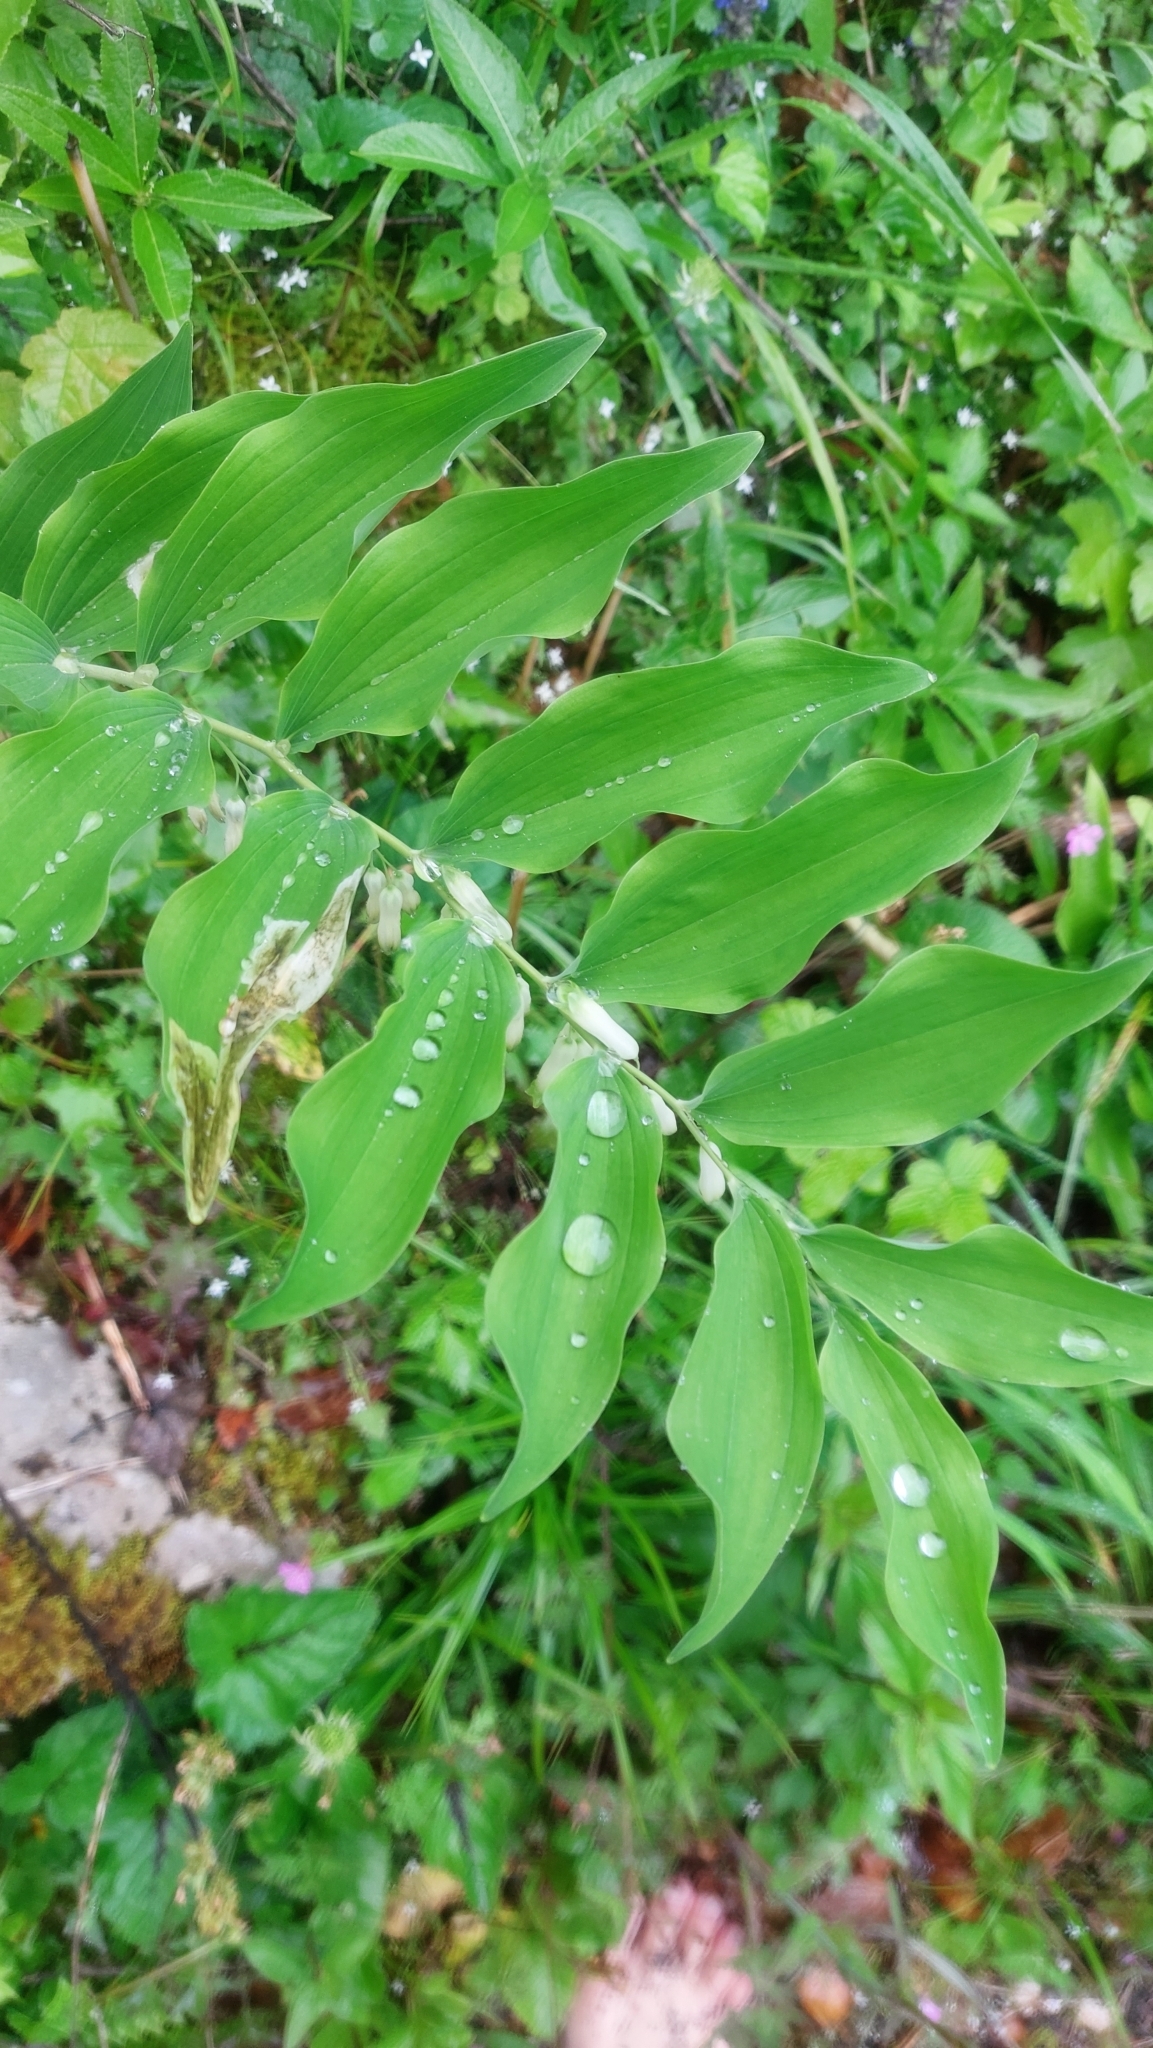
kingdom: Plantae
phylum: Tracheophyta
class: Liliopsida
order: Asparagales
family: Asparagaceae
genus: Polygonatum
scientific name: Polygonatum multiflorum
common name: Solomon's-seal
